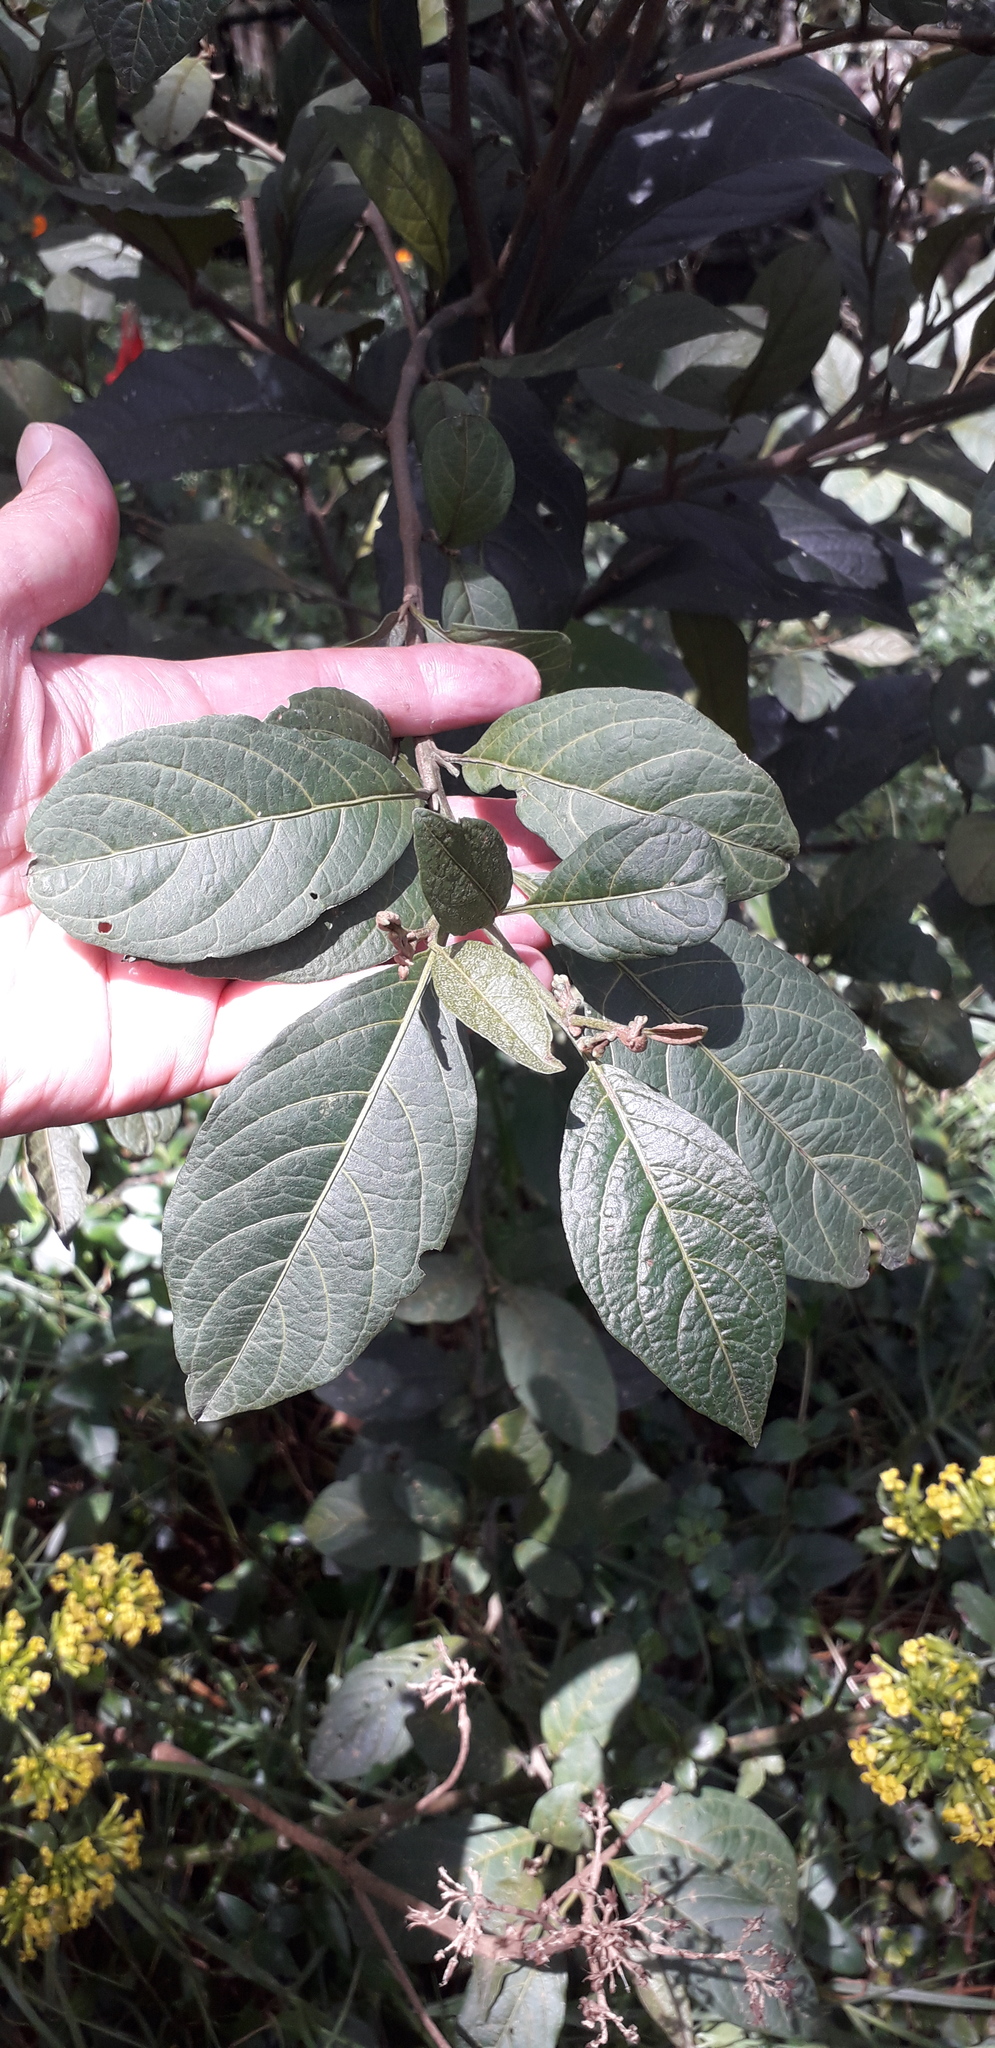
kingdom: Plantae
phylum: Tracheophyta
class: Magnoliopsida
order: Solanales
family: Solanaceae
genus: Solanum
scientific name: Solanum cornifolium
